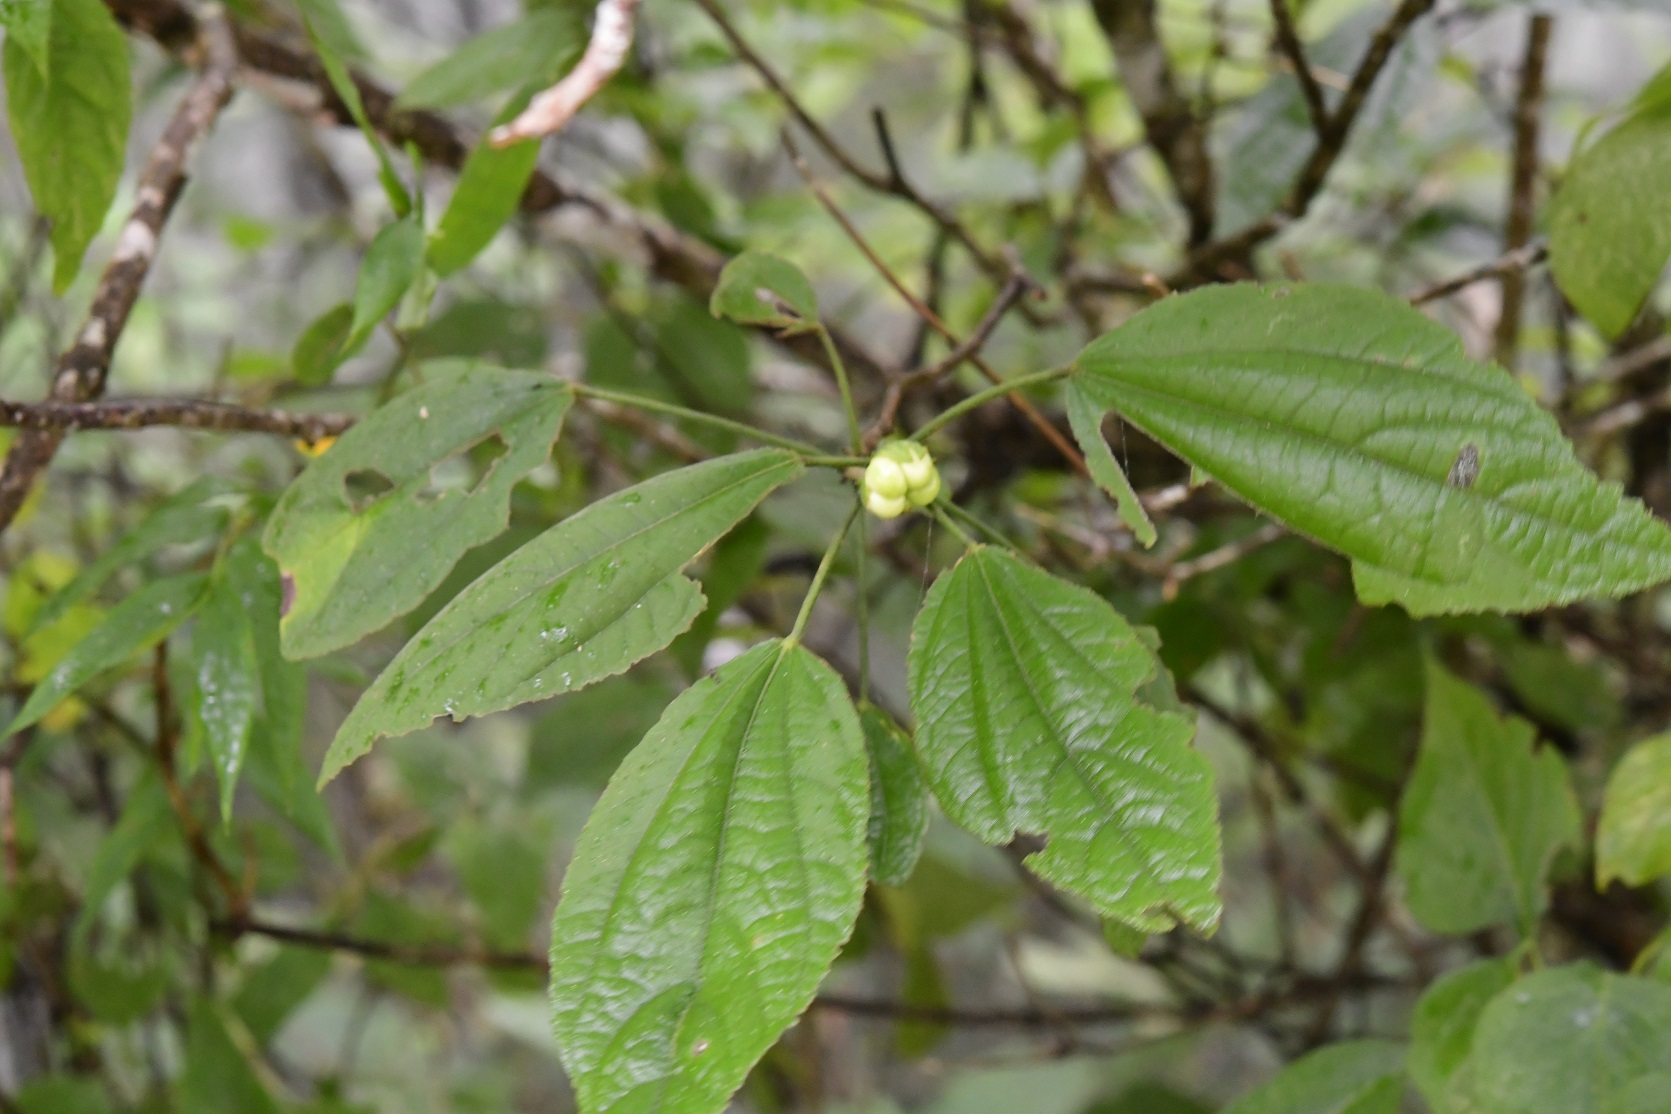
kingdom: Plantae
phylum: Tracheophyta
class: Magnoliopsida
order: Malvales
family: Malvaceae
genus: Malvaviscus
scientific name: Malvaviscus arboreus
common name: Wax mallow
